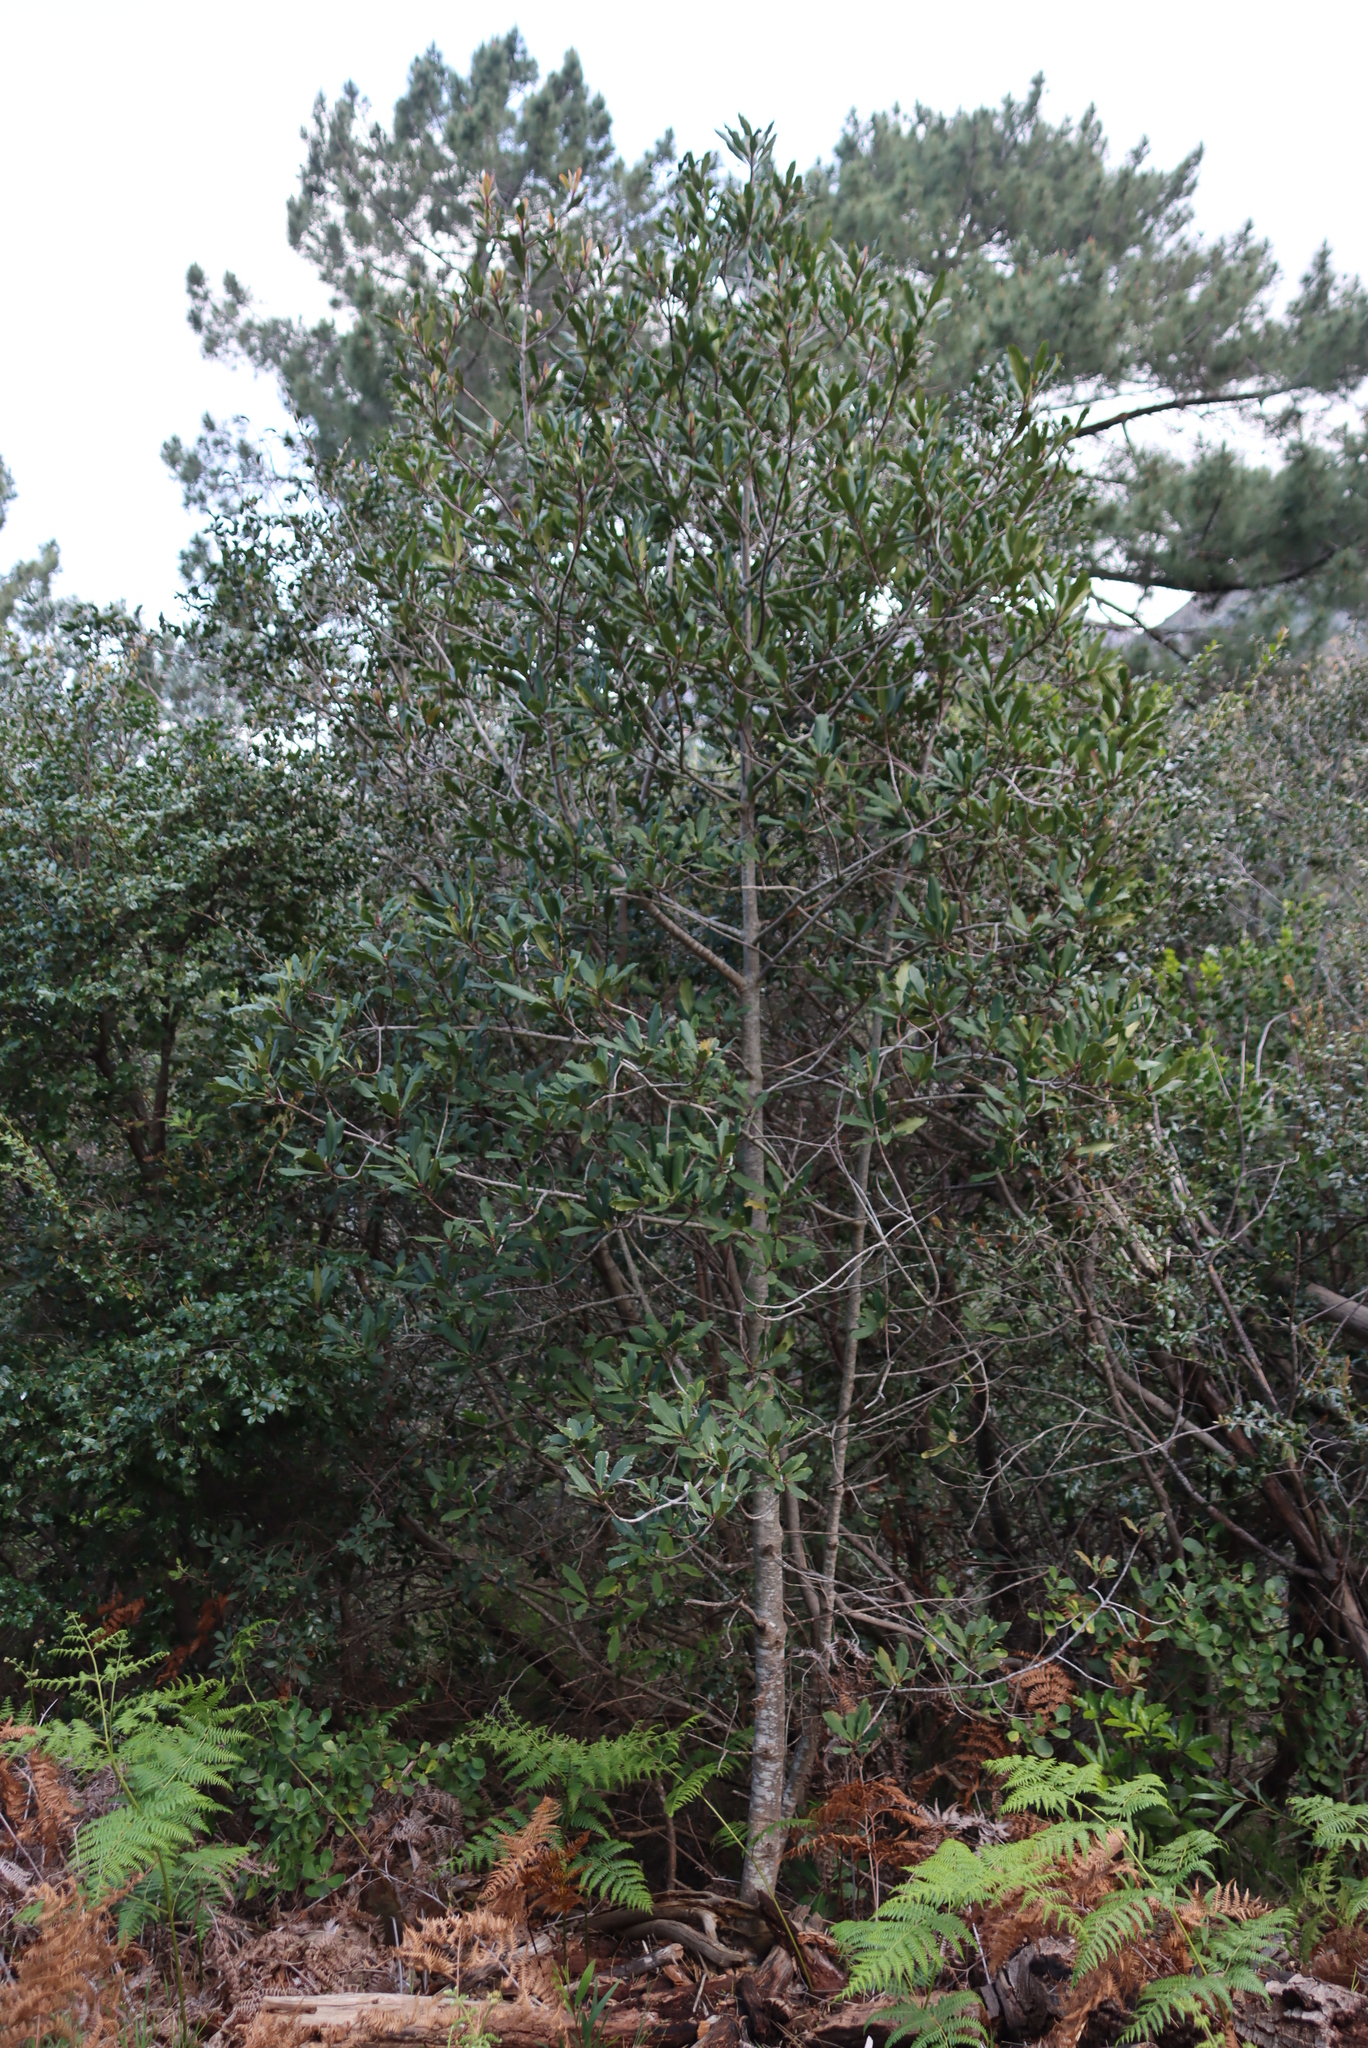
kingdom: Plantae
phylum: Tracheophyta
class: Magnoliopsida
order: Ericales
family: Primulaceae
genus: Myrsine
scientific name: Myrsine melanophloeos
